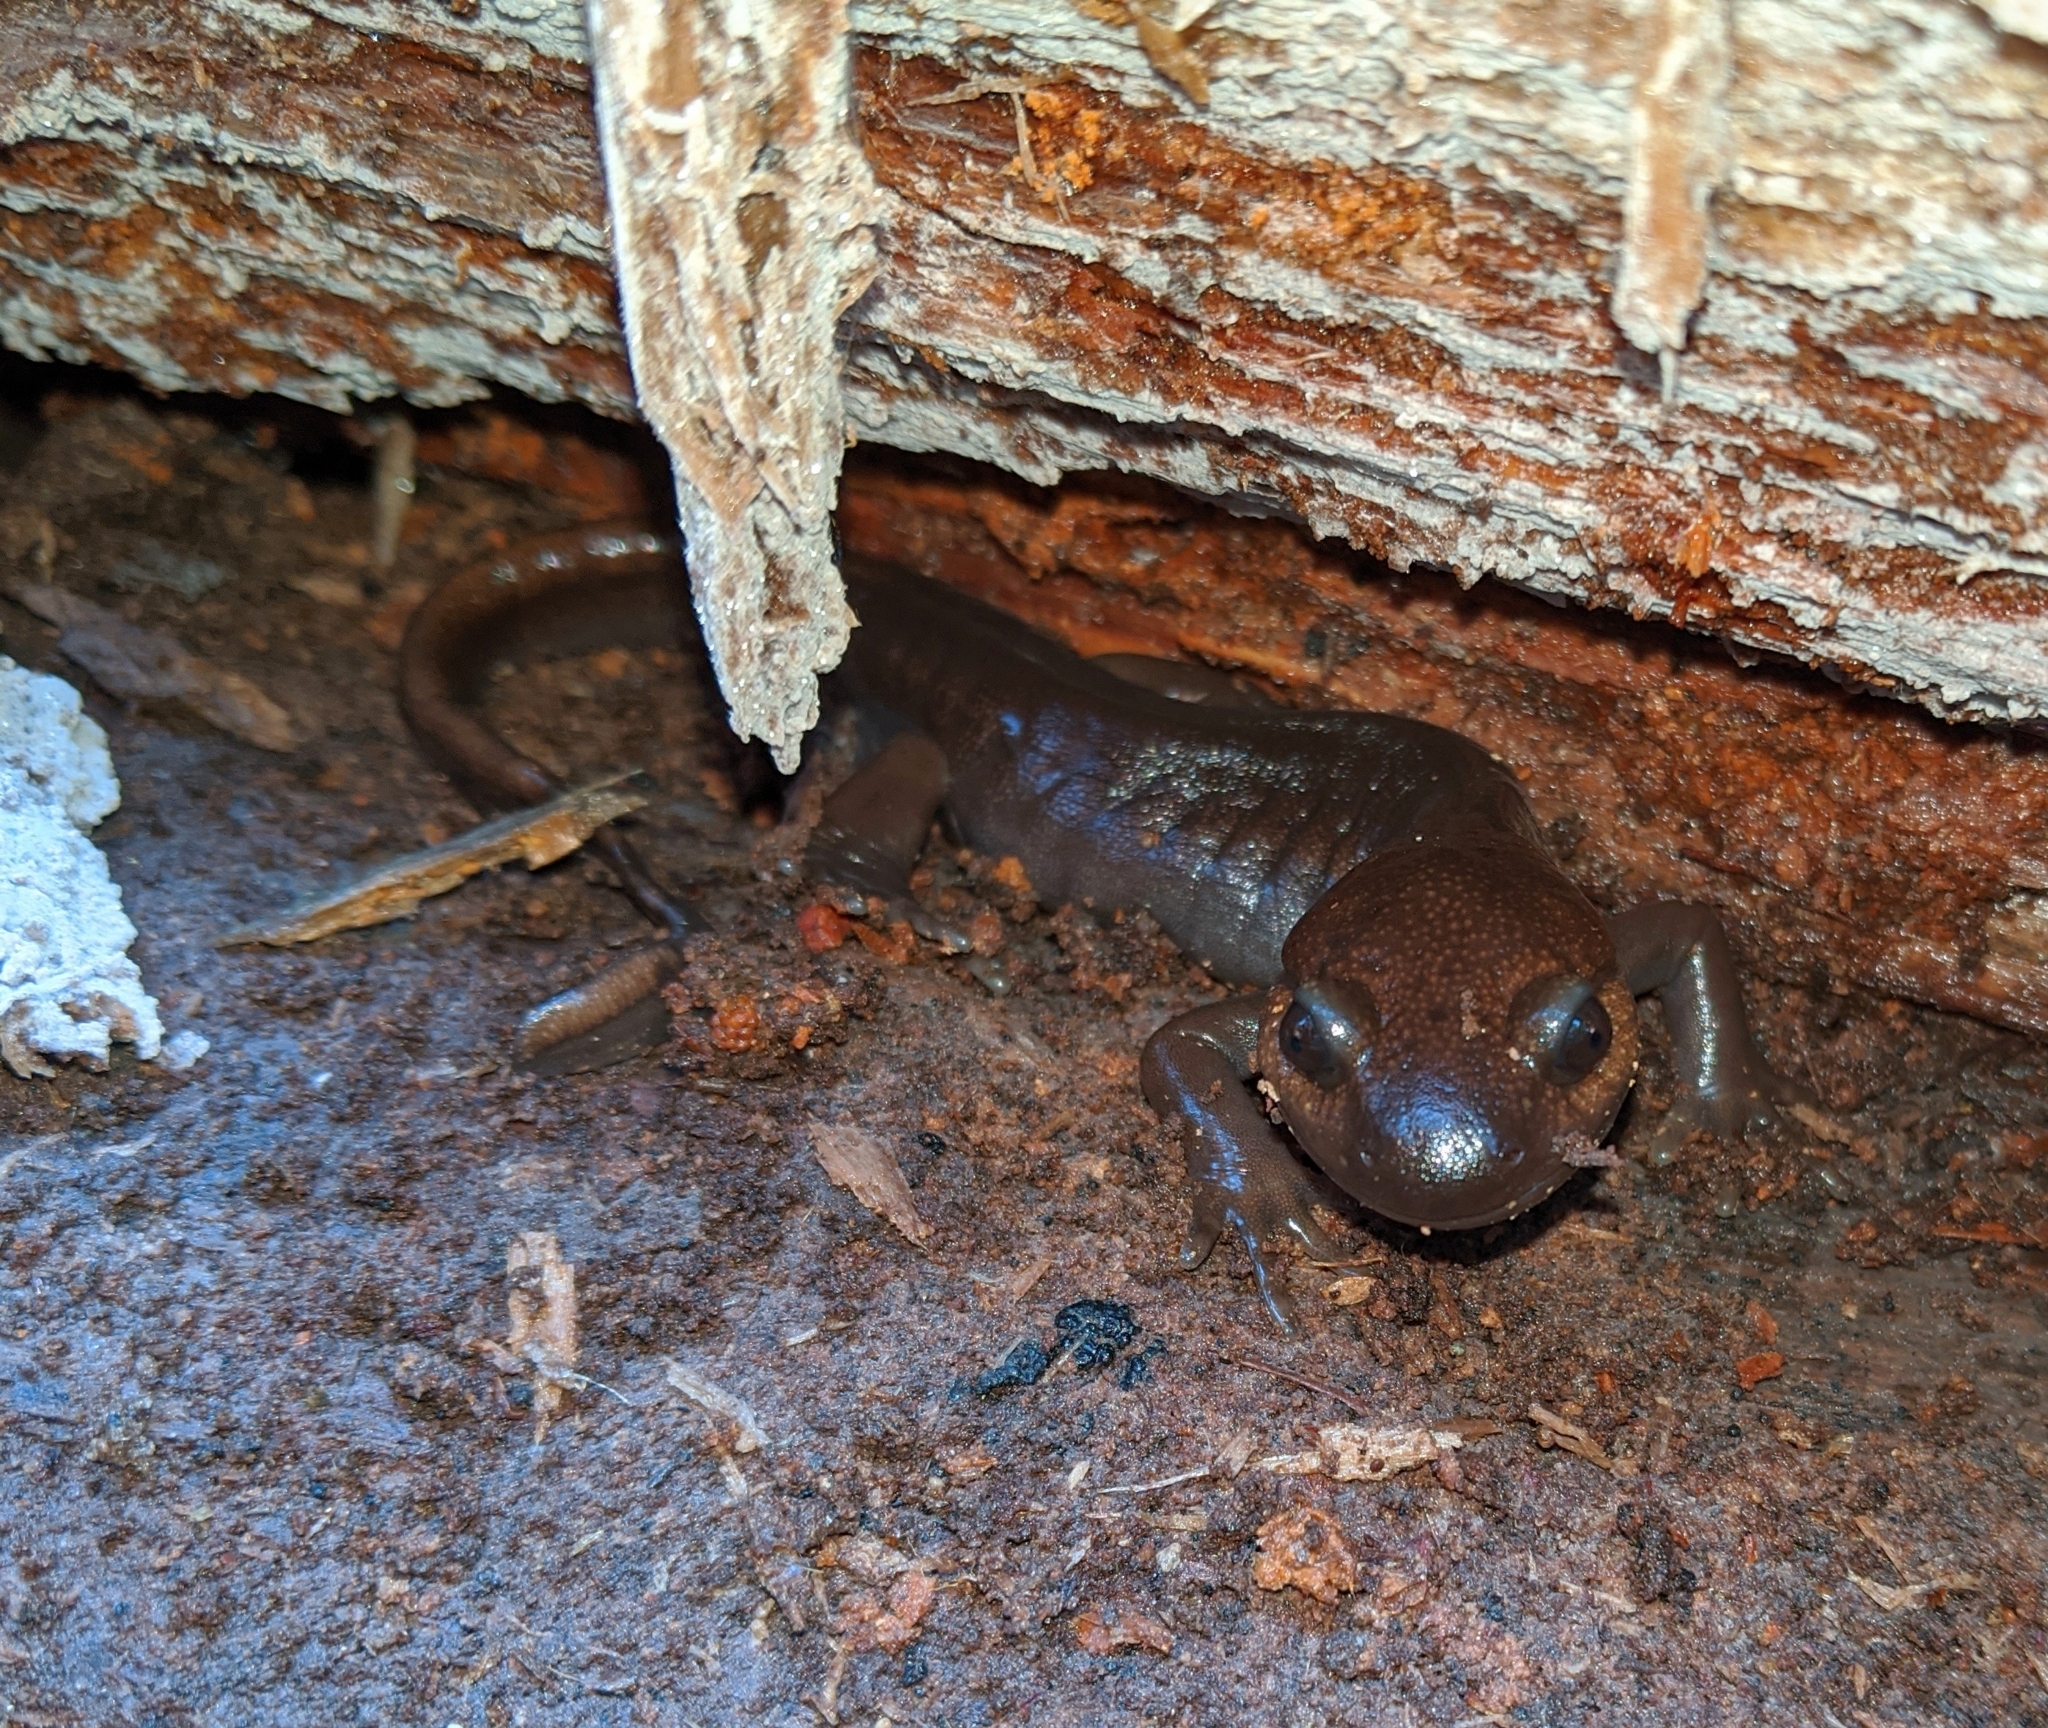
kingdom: Animalia
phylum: Chordata
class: Amphibia
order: Caudata
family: Ambystomatidae
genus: Ambystoma
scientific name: Ambystoma gracile
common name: Northwestern salamander
